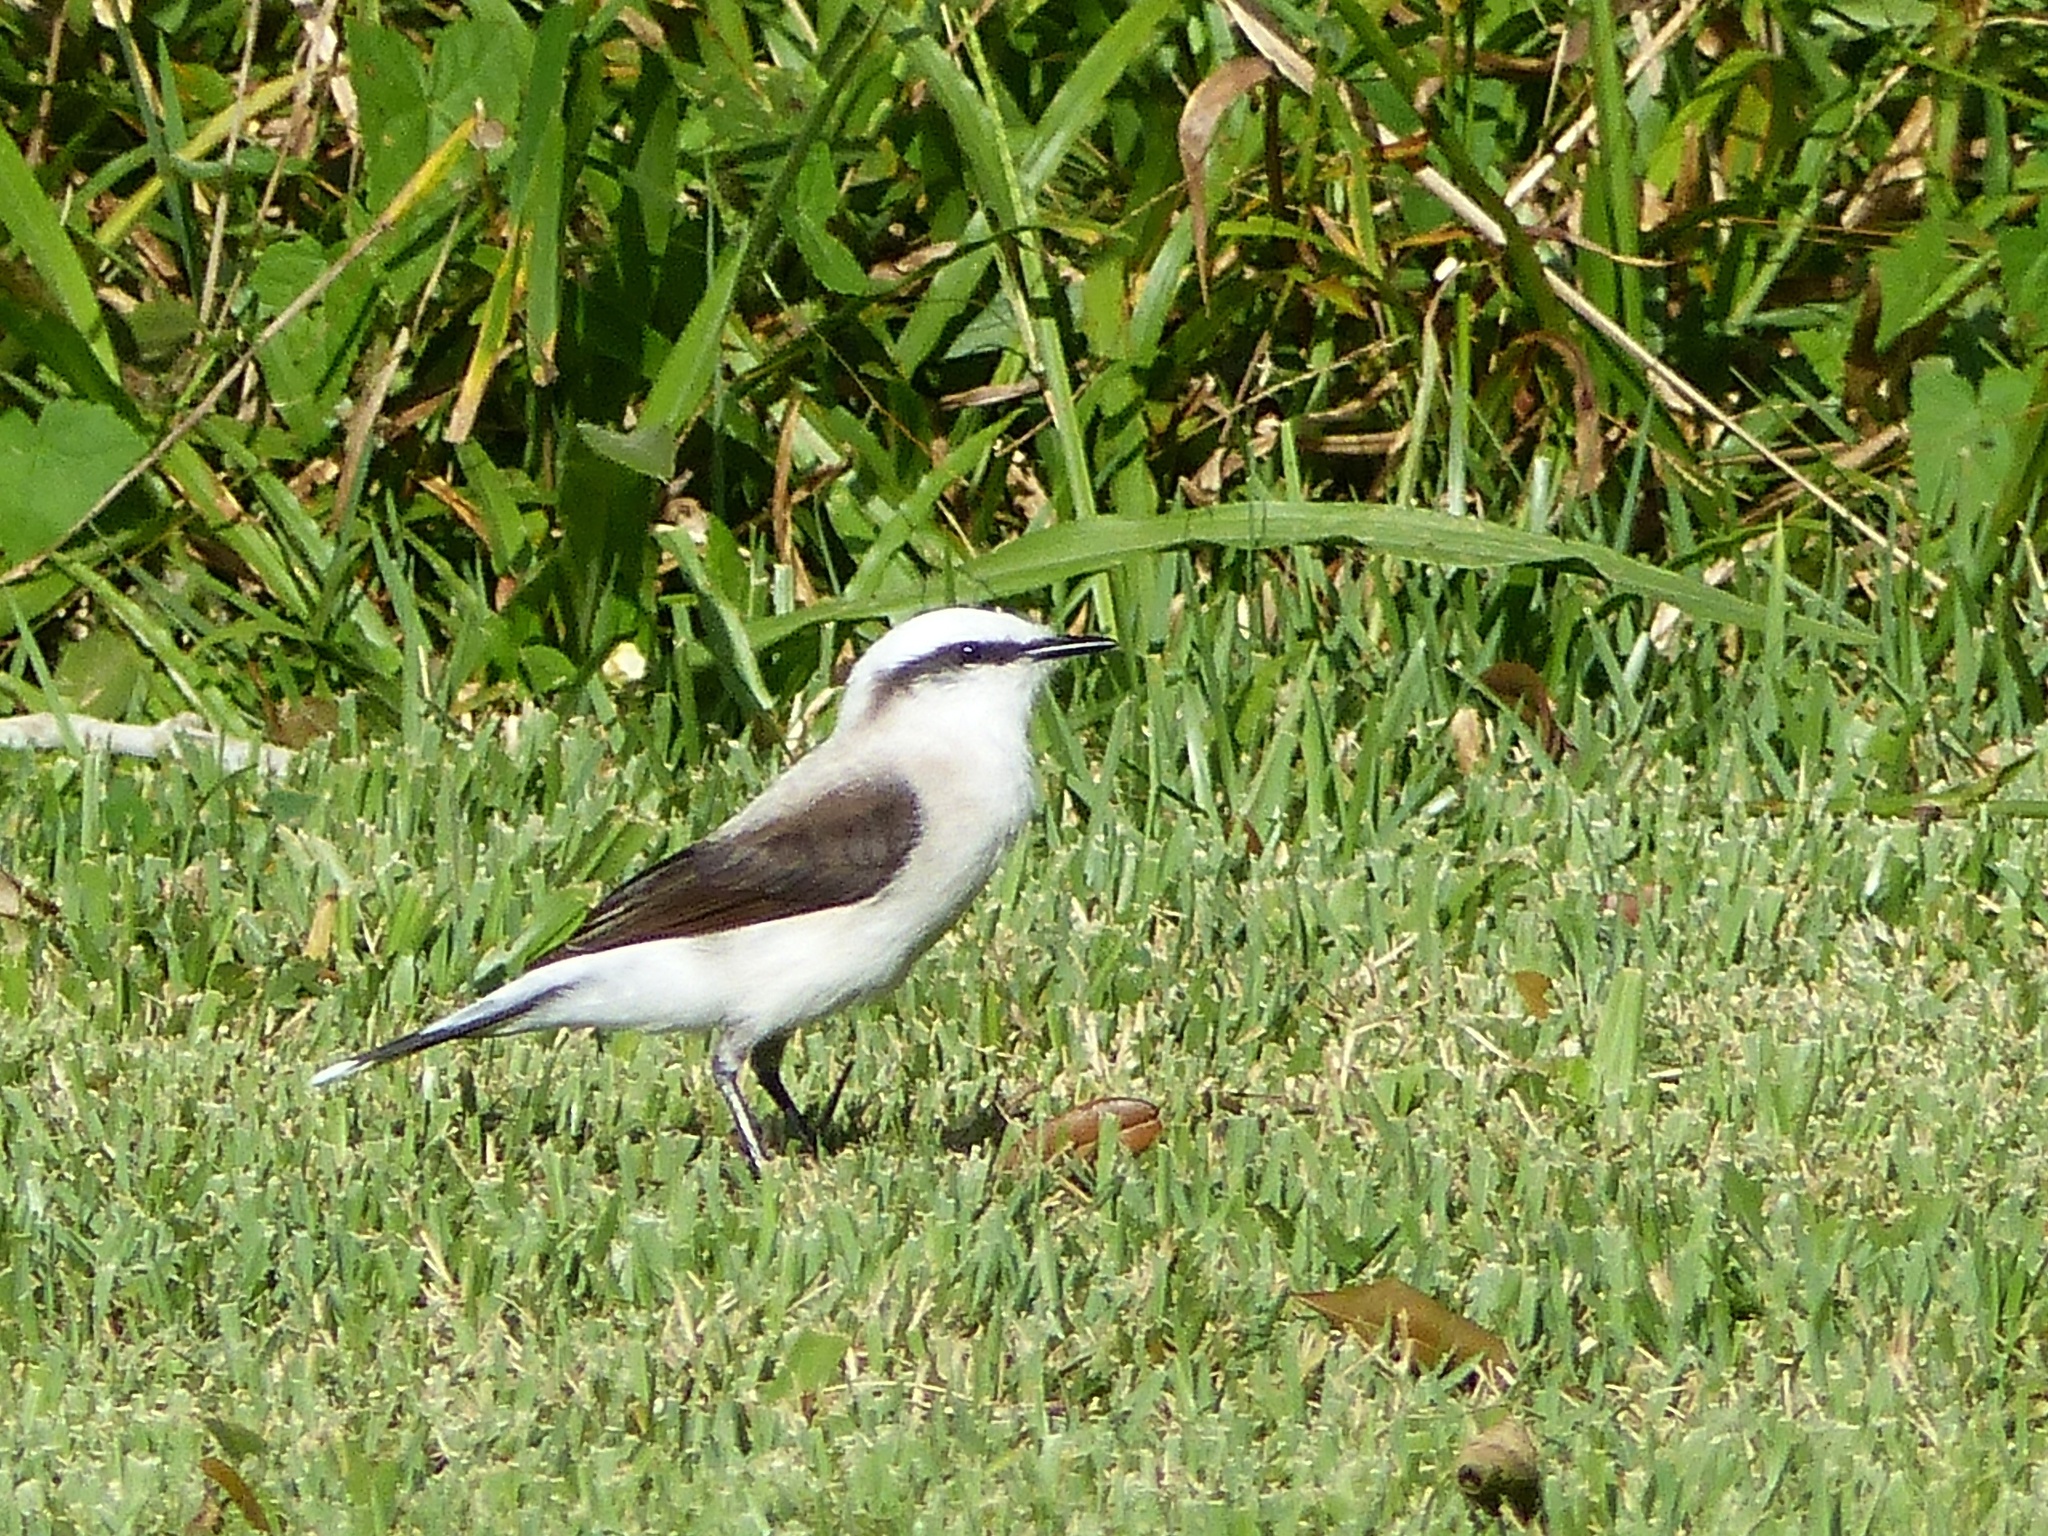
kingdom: Animalia
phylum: Chordata
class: Aves
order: Passeriformes
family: Tyrannidae
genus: Fluvicola
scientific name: Fluvicola nengeta
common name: Masked water tyrant
